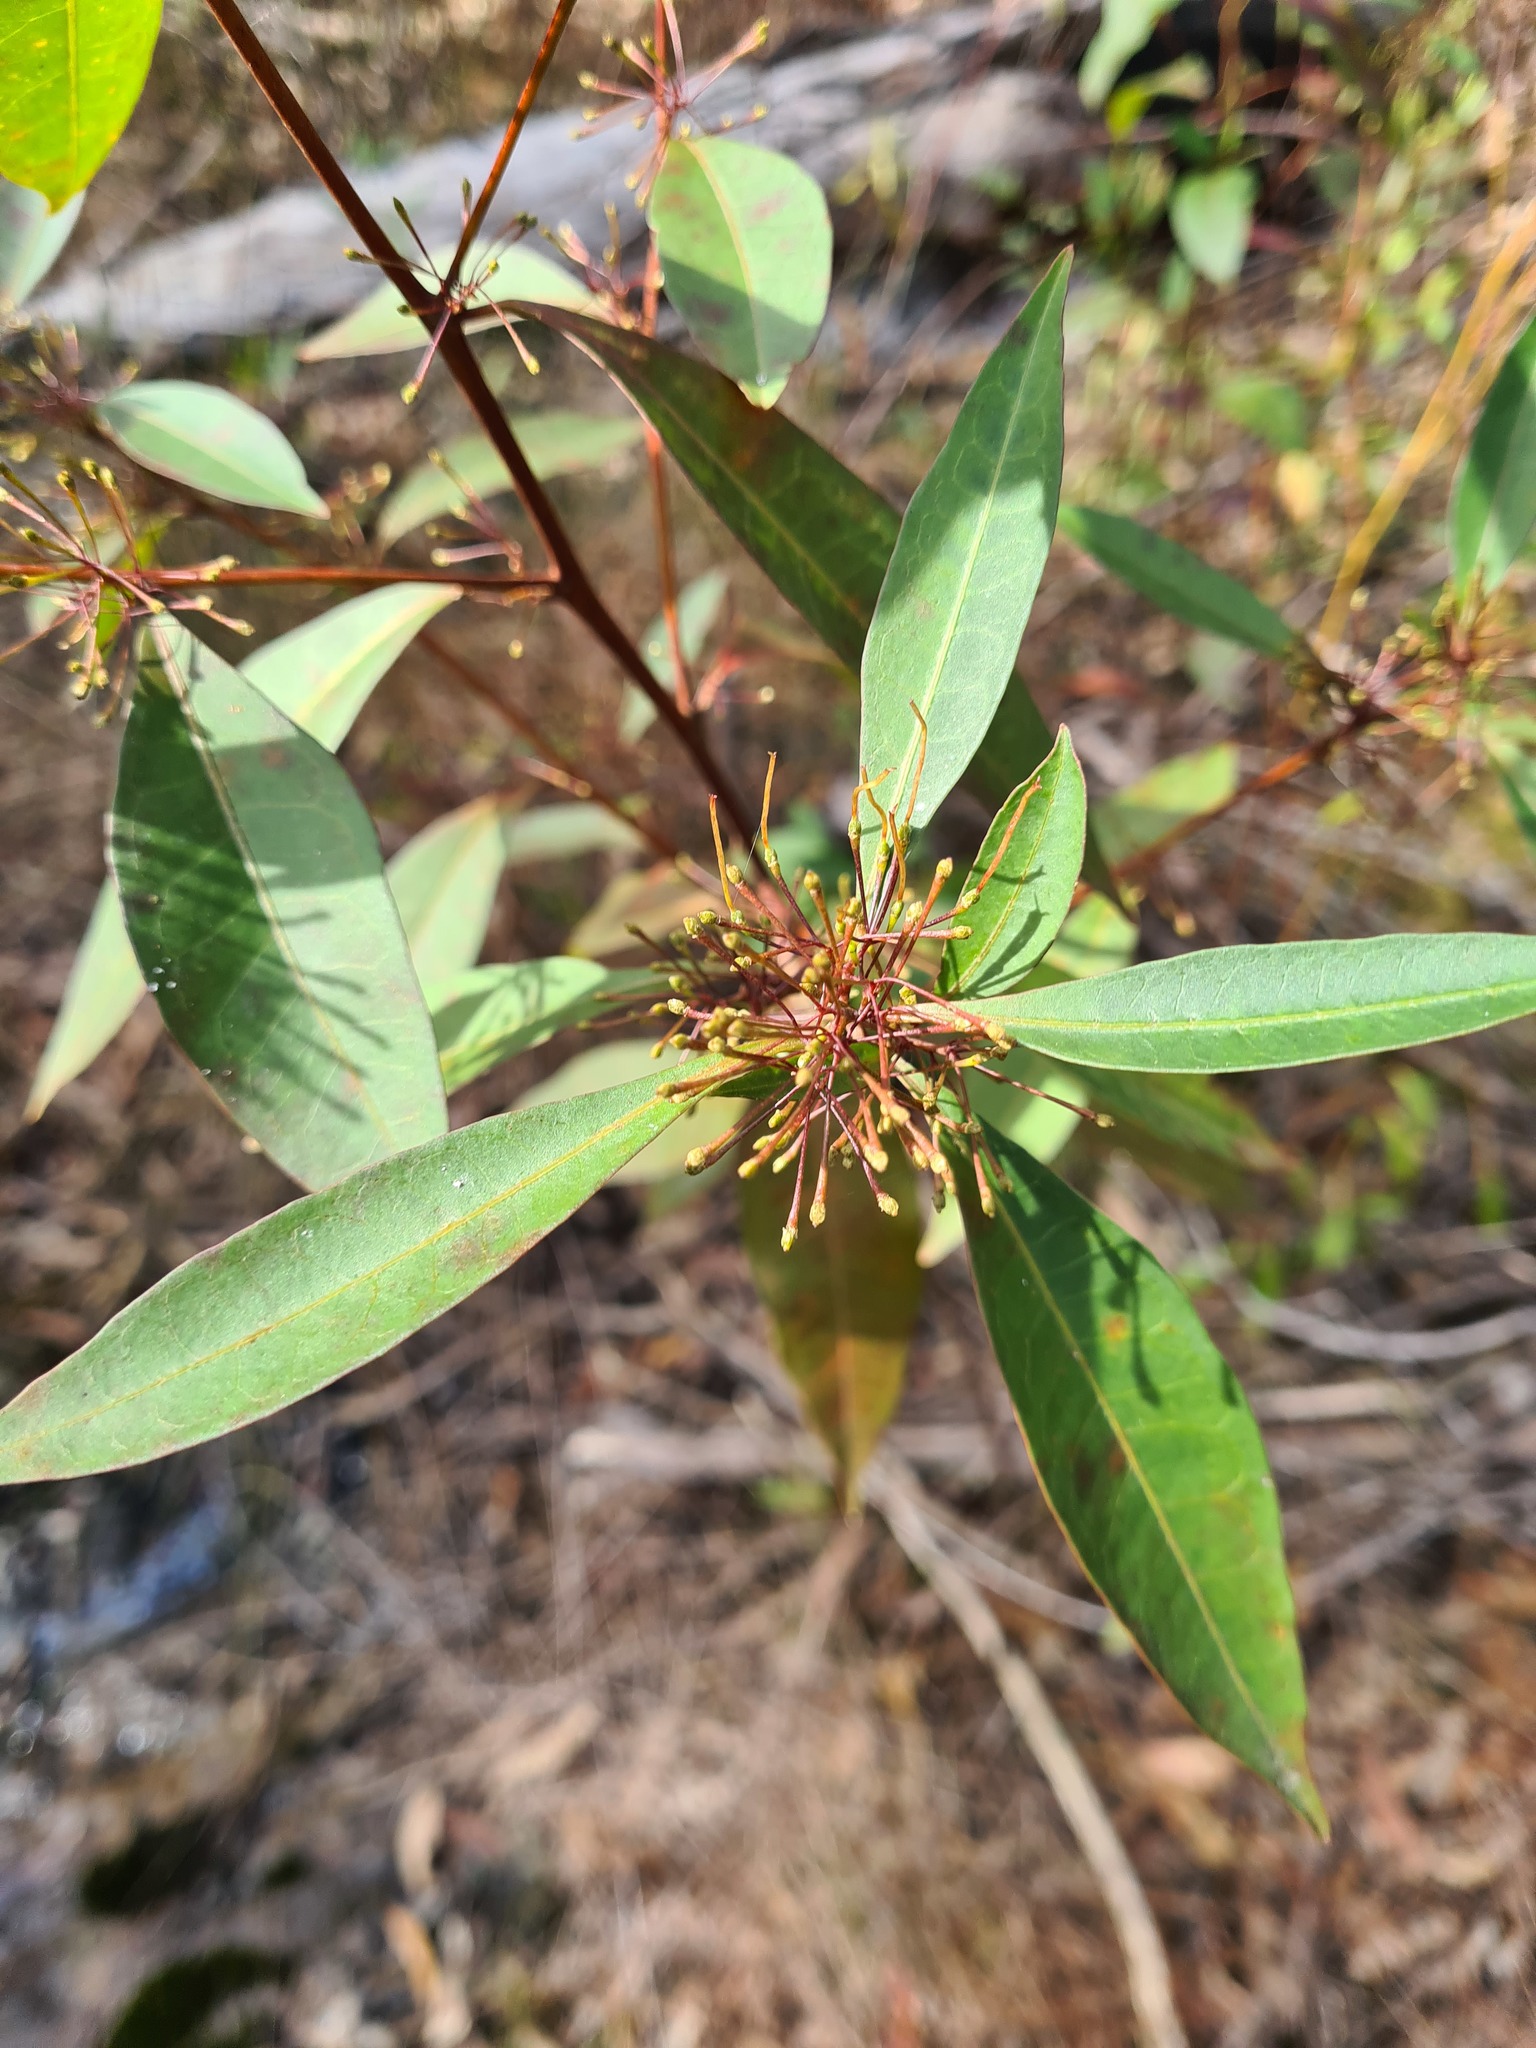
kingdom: Plantae
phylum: Tracheophyta
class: Magnoliopsida
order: Sapindales
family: Sapindaceae
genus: Dodonaea
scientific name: Dodonaea triquetra
